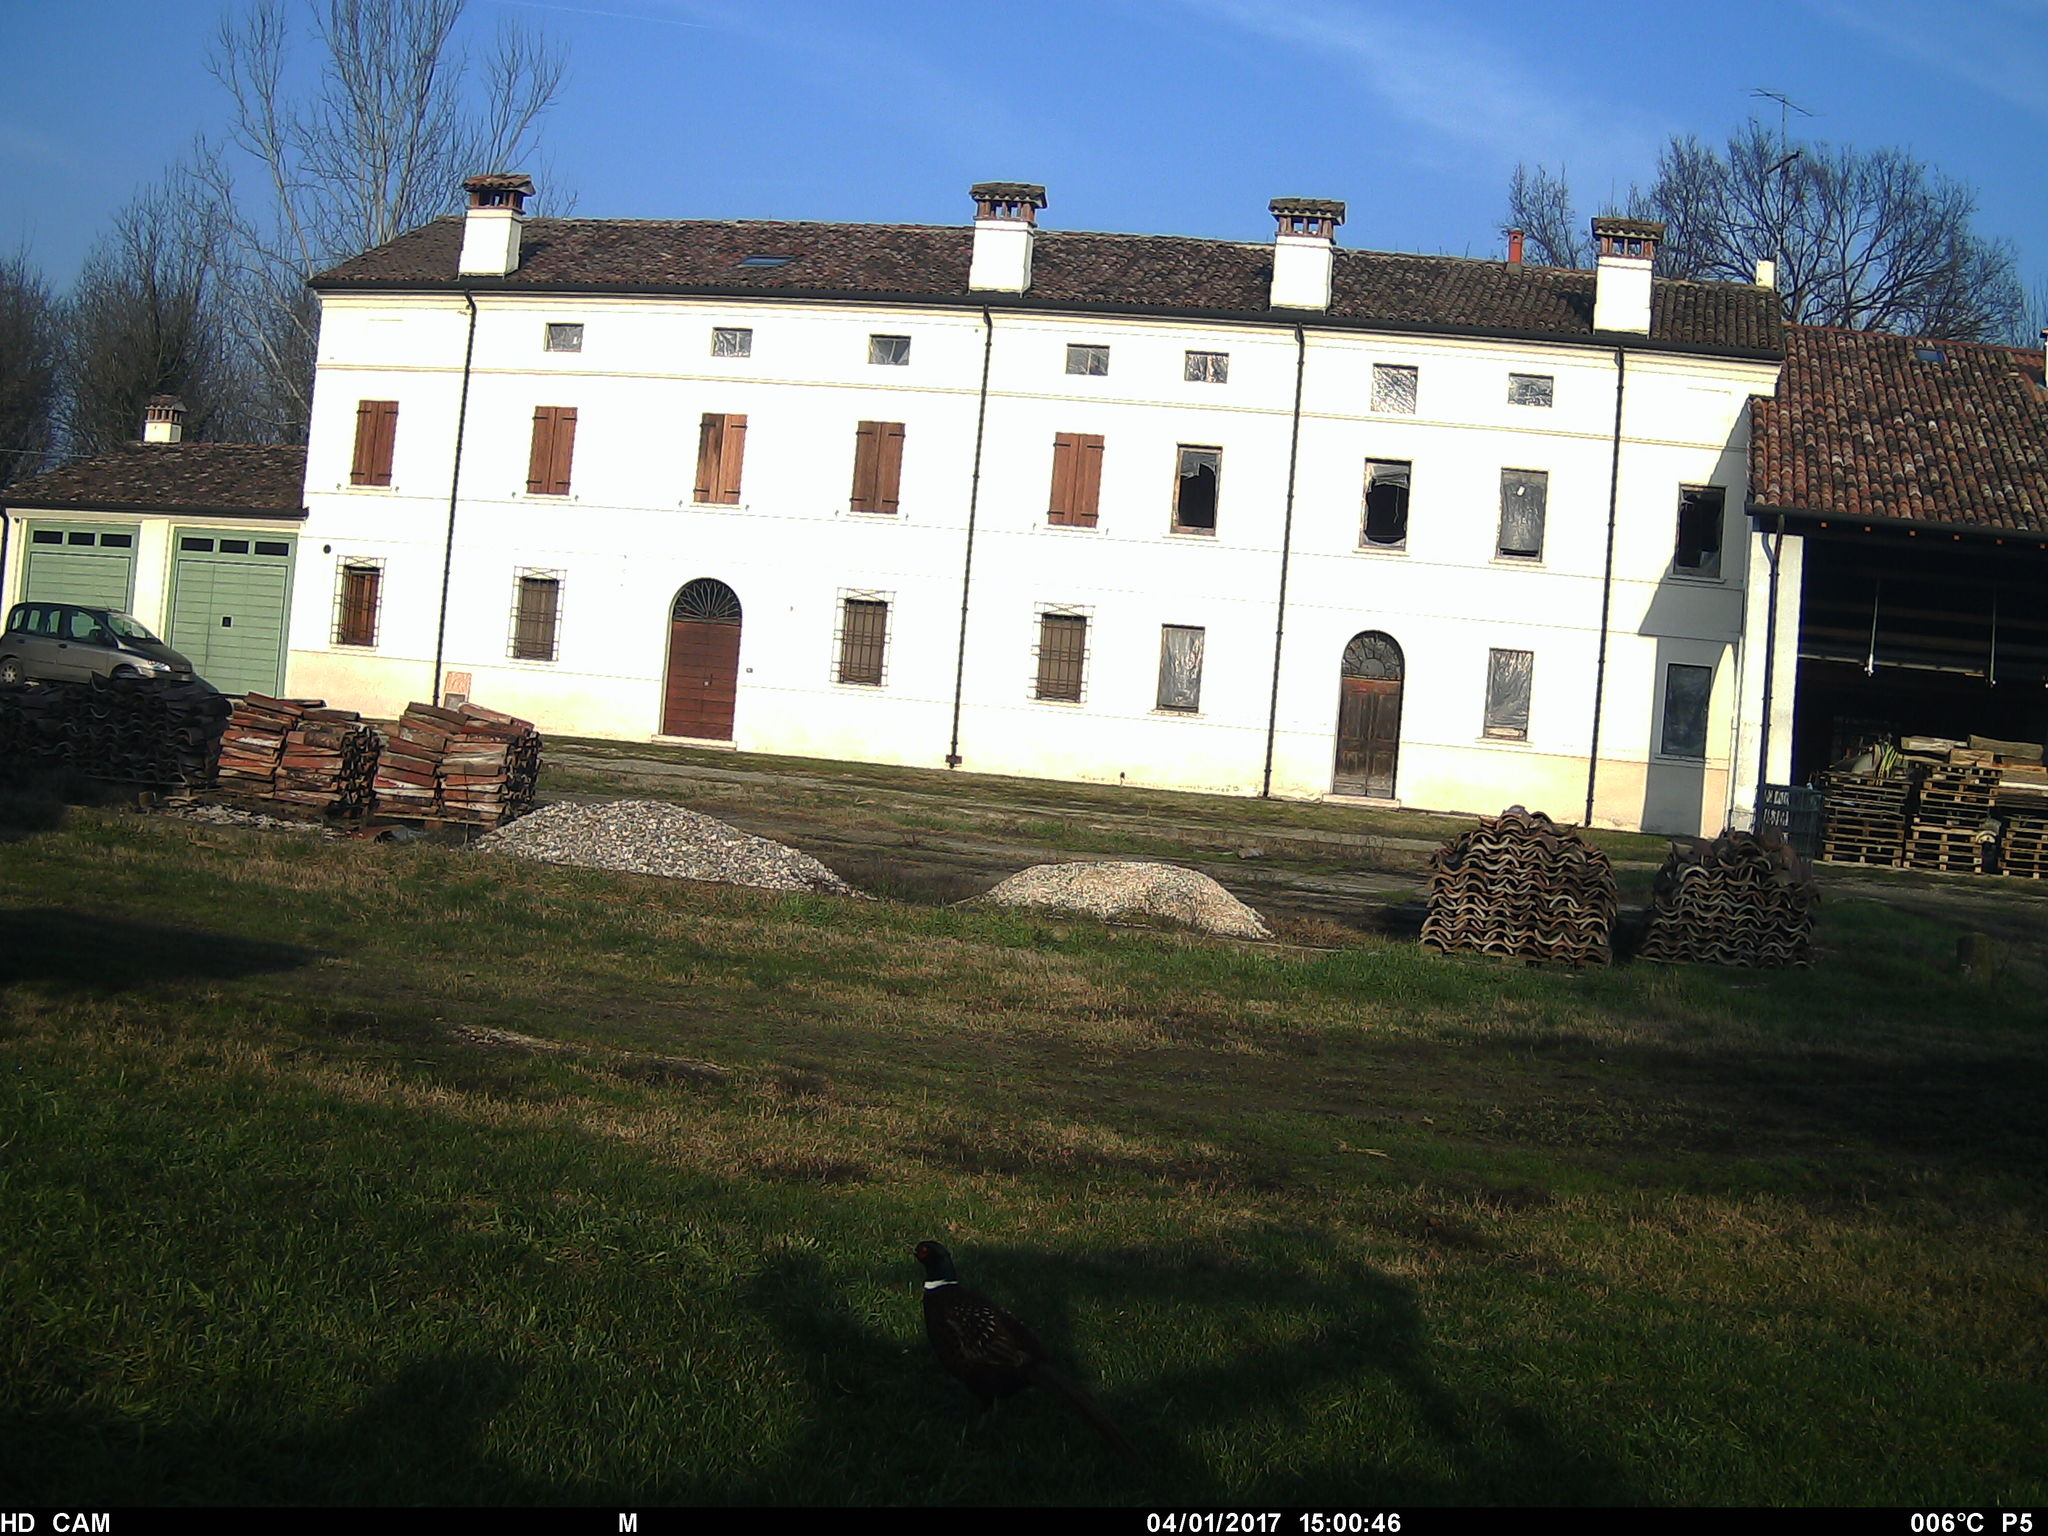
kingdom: Animalia
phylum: Chordata
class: Aves
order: Galliformes
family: Phasianidae
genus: Phasianus
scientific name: Phasianus colchicus
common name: Common pheasant
